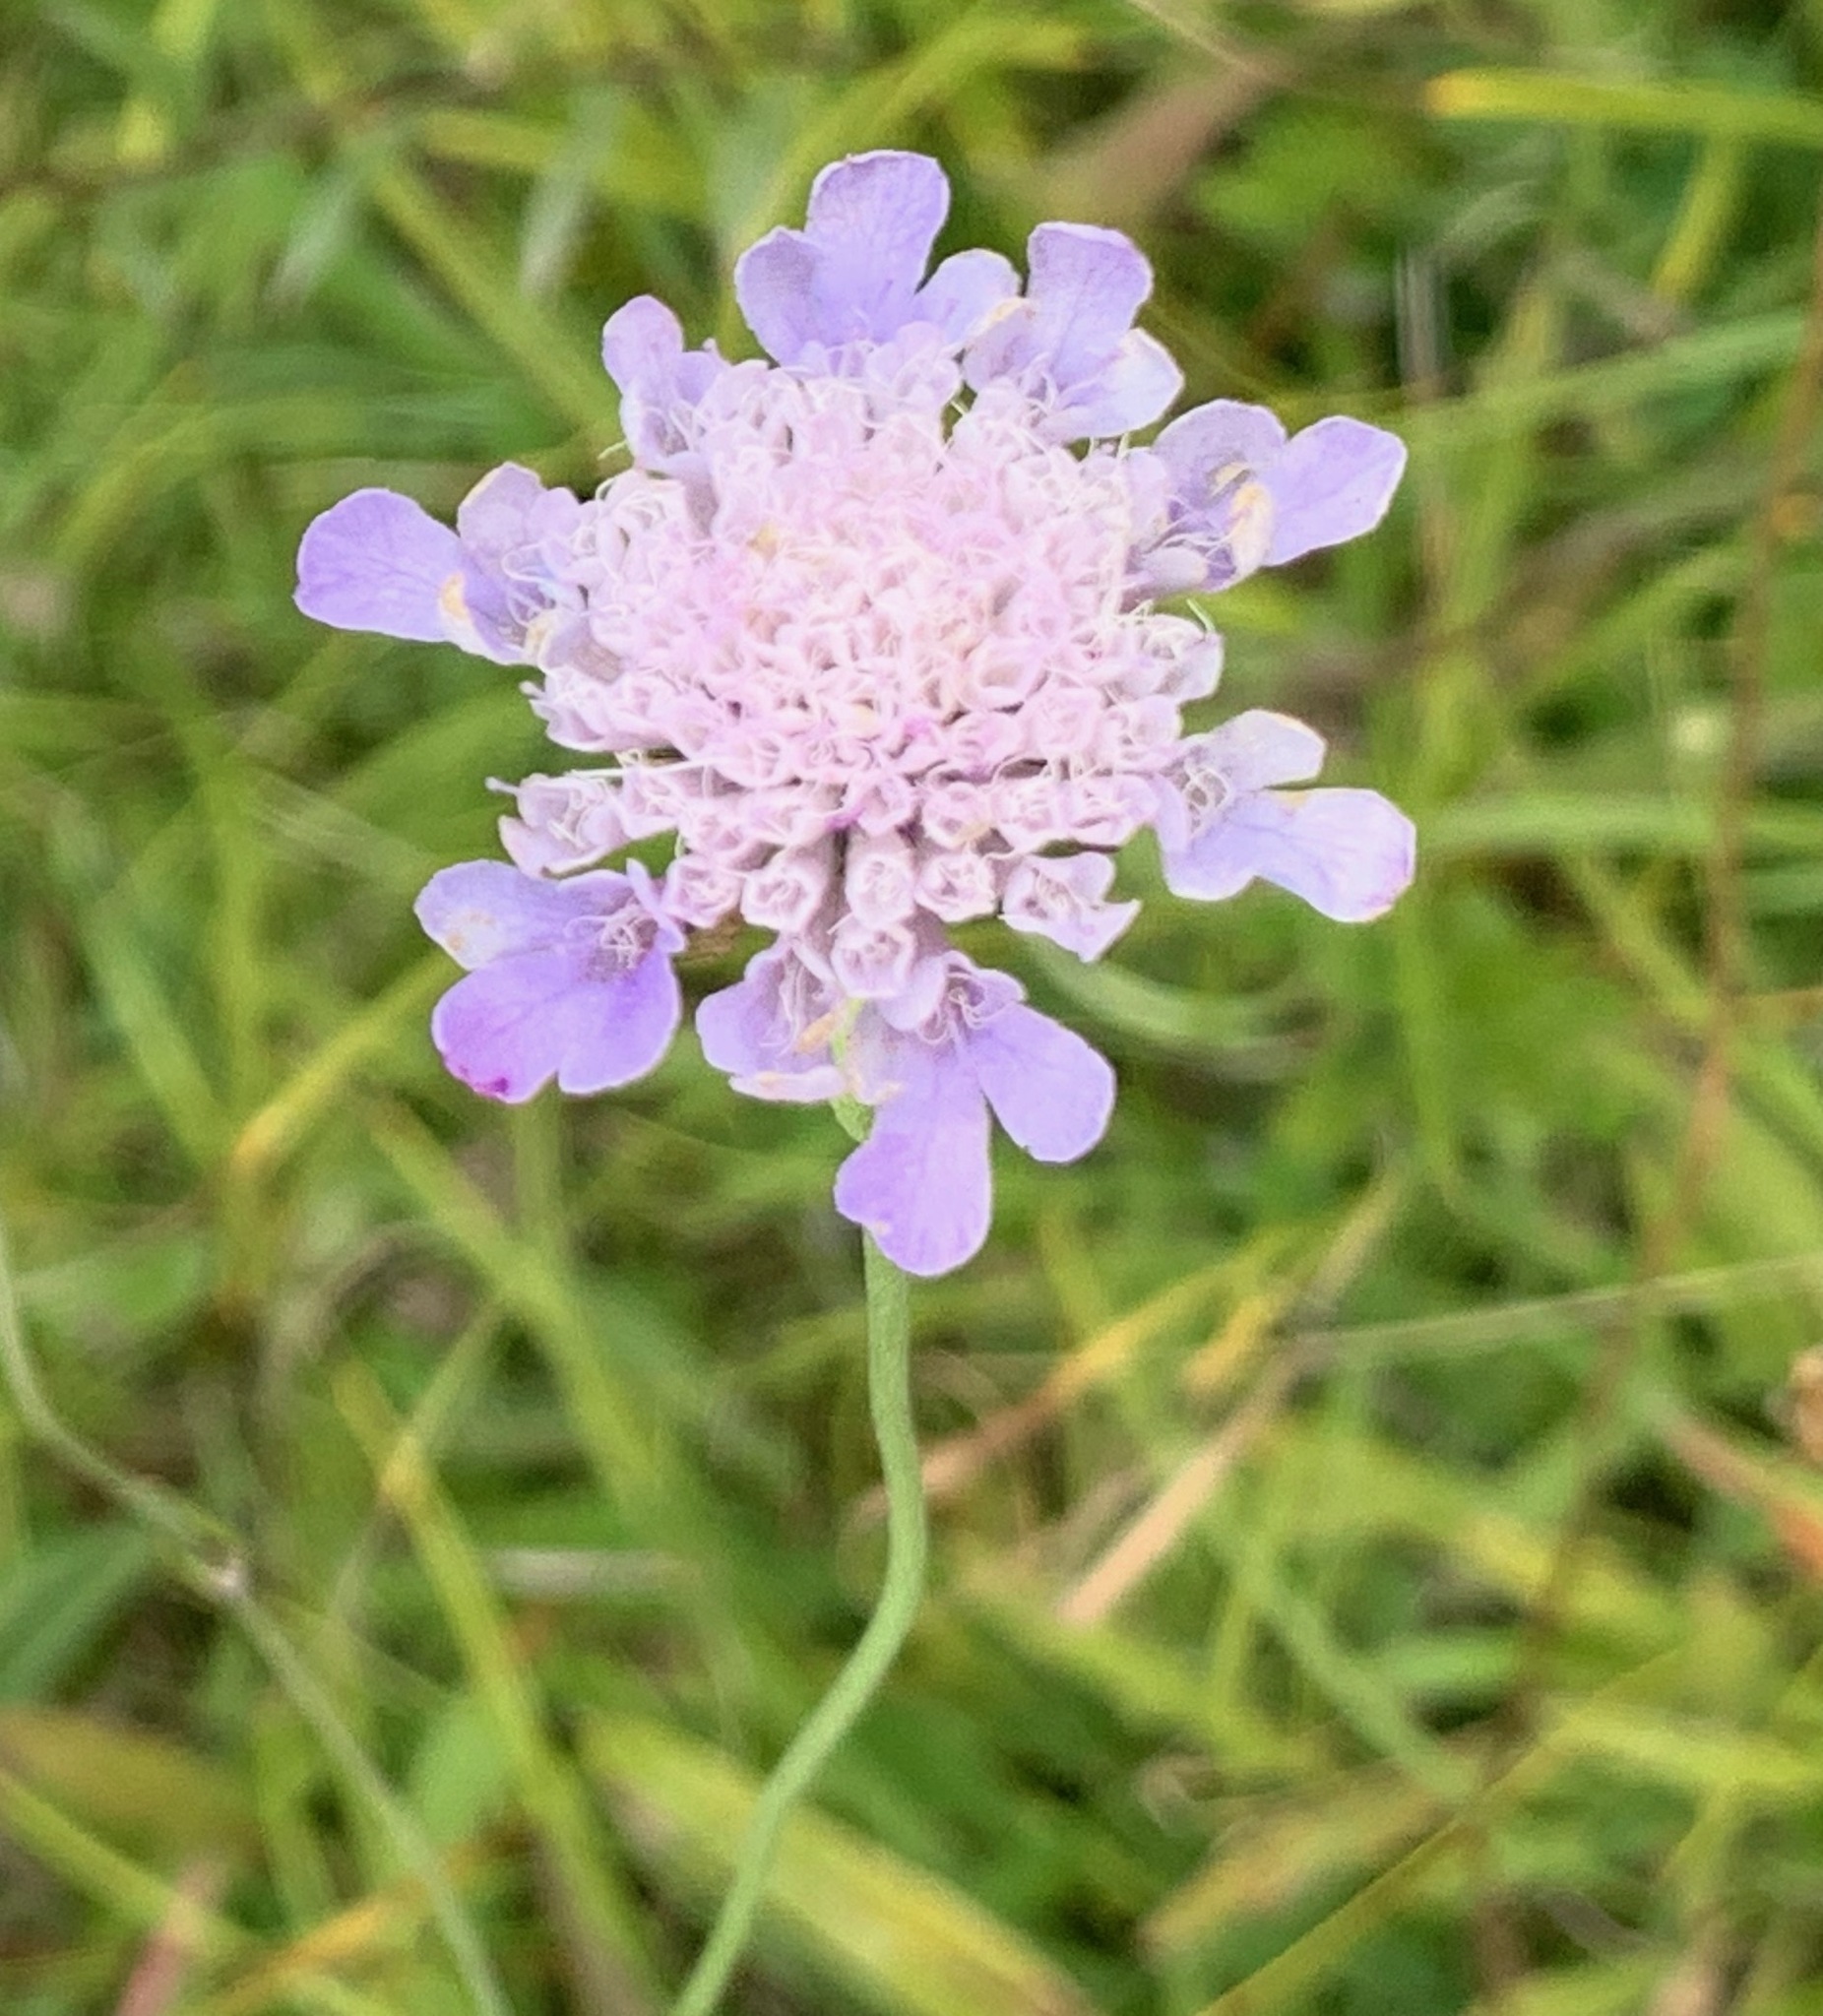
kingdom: Plantae
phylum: Tracheophyta
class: Magnoliopsida
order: Dipsacales
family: Caprifoliaceae
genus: Knautia
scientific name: Knautia arvensis
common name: Field scabiosa
